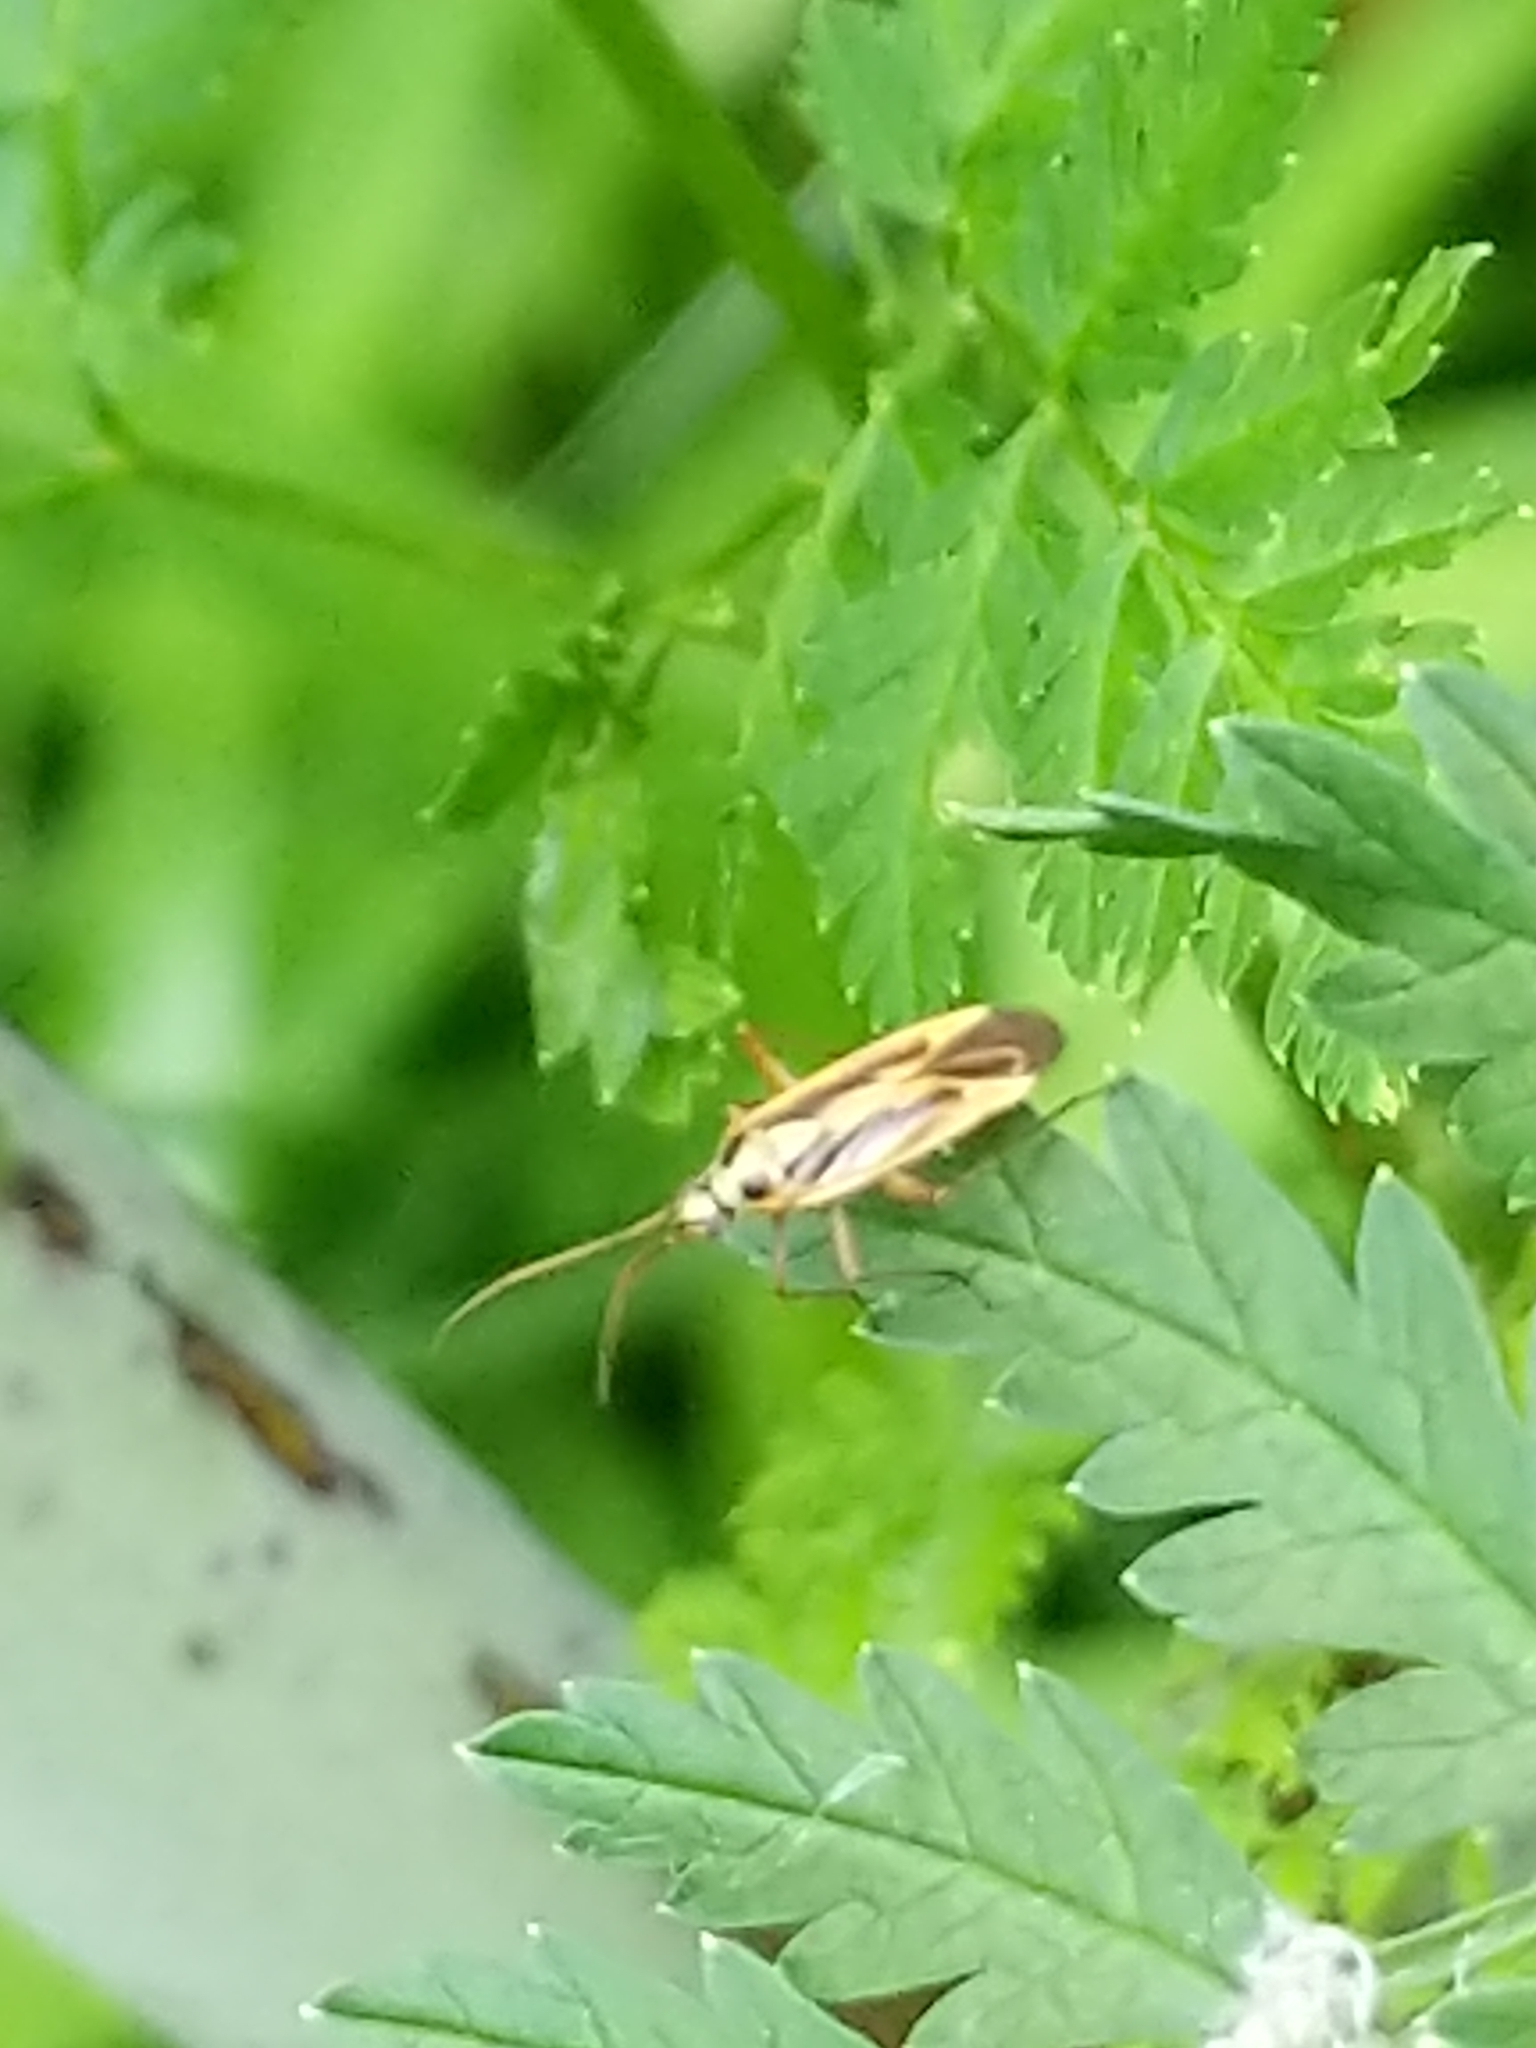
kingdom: Animalia
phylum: Arthropoda
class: Insecta
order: Hemiptera
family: Miridae
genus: Stenotus
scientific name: Stenotus binotatus
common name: Plant bug
